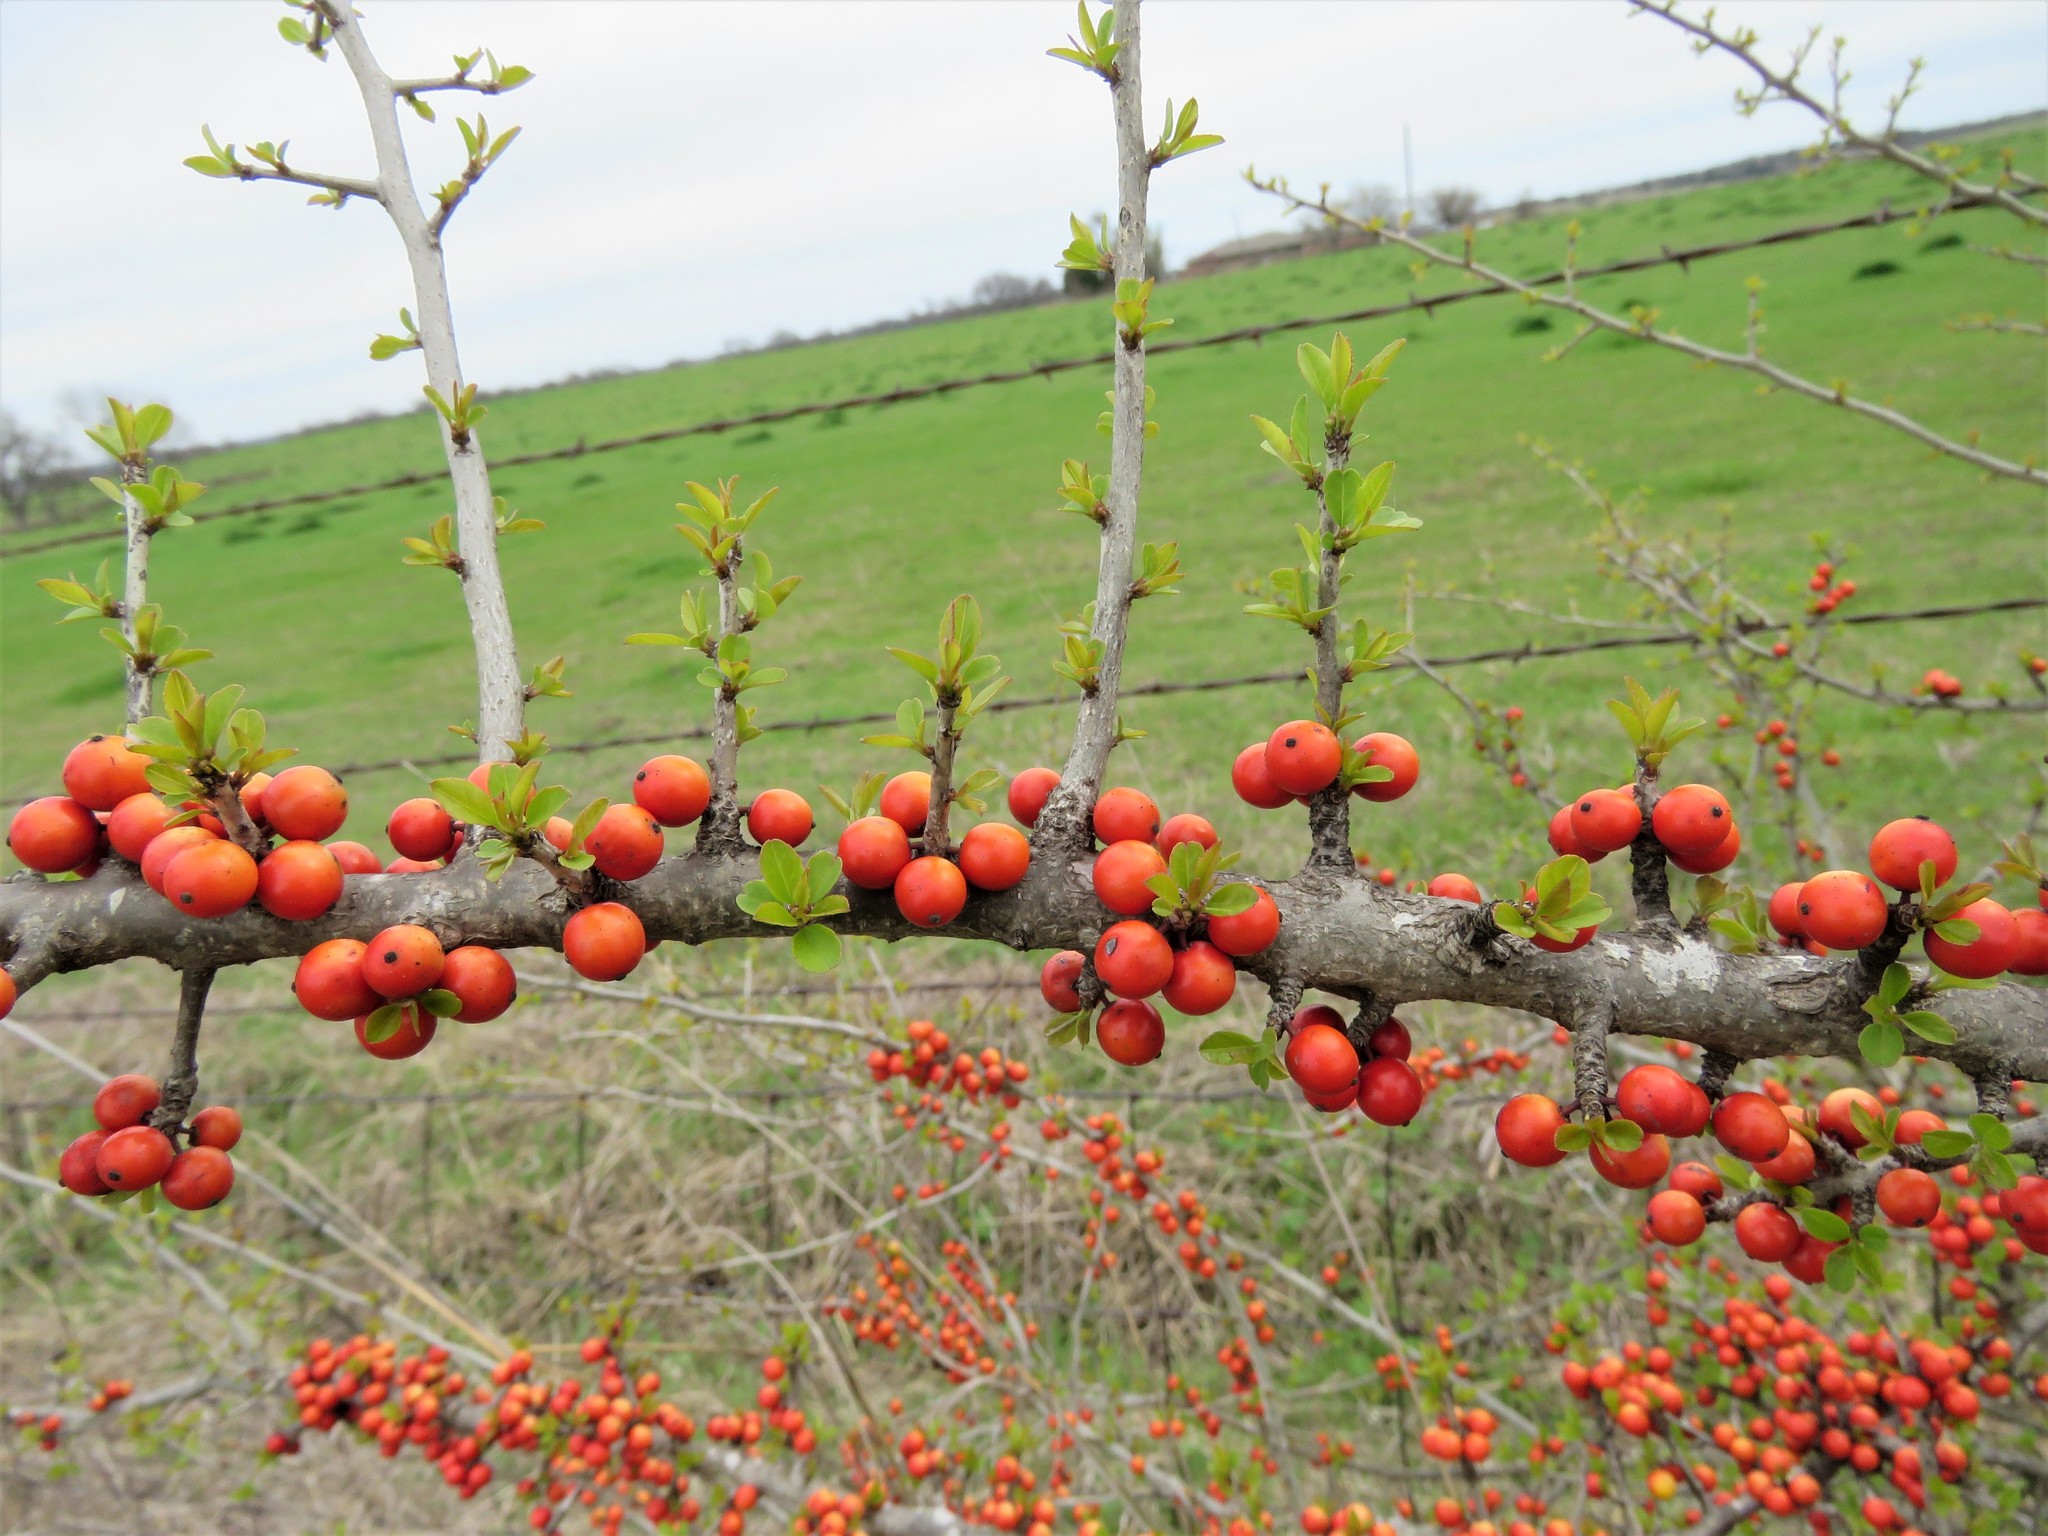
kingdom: Plantae
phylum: Tracheophyta
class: Magnoliopsida
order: Aquifoliales
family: Aquifoliaceae
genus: Ilex
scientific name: Ilex decidua
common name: Possum-haw
